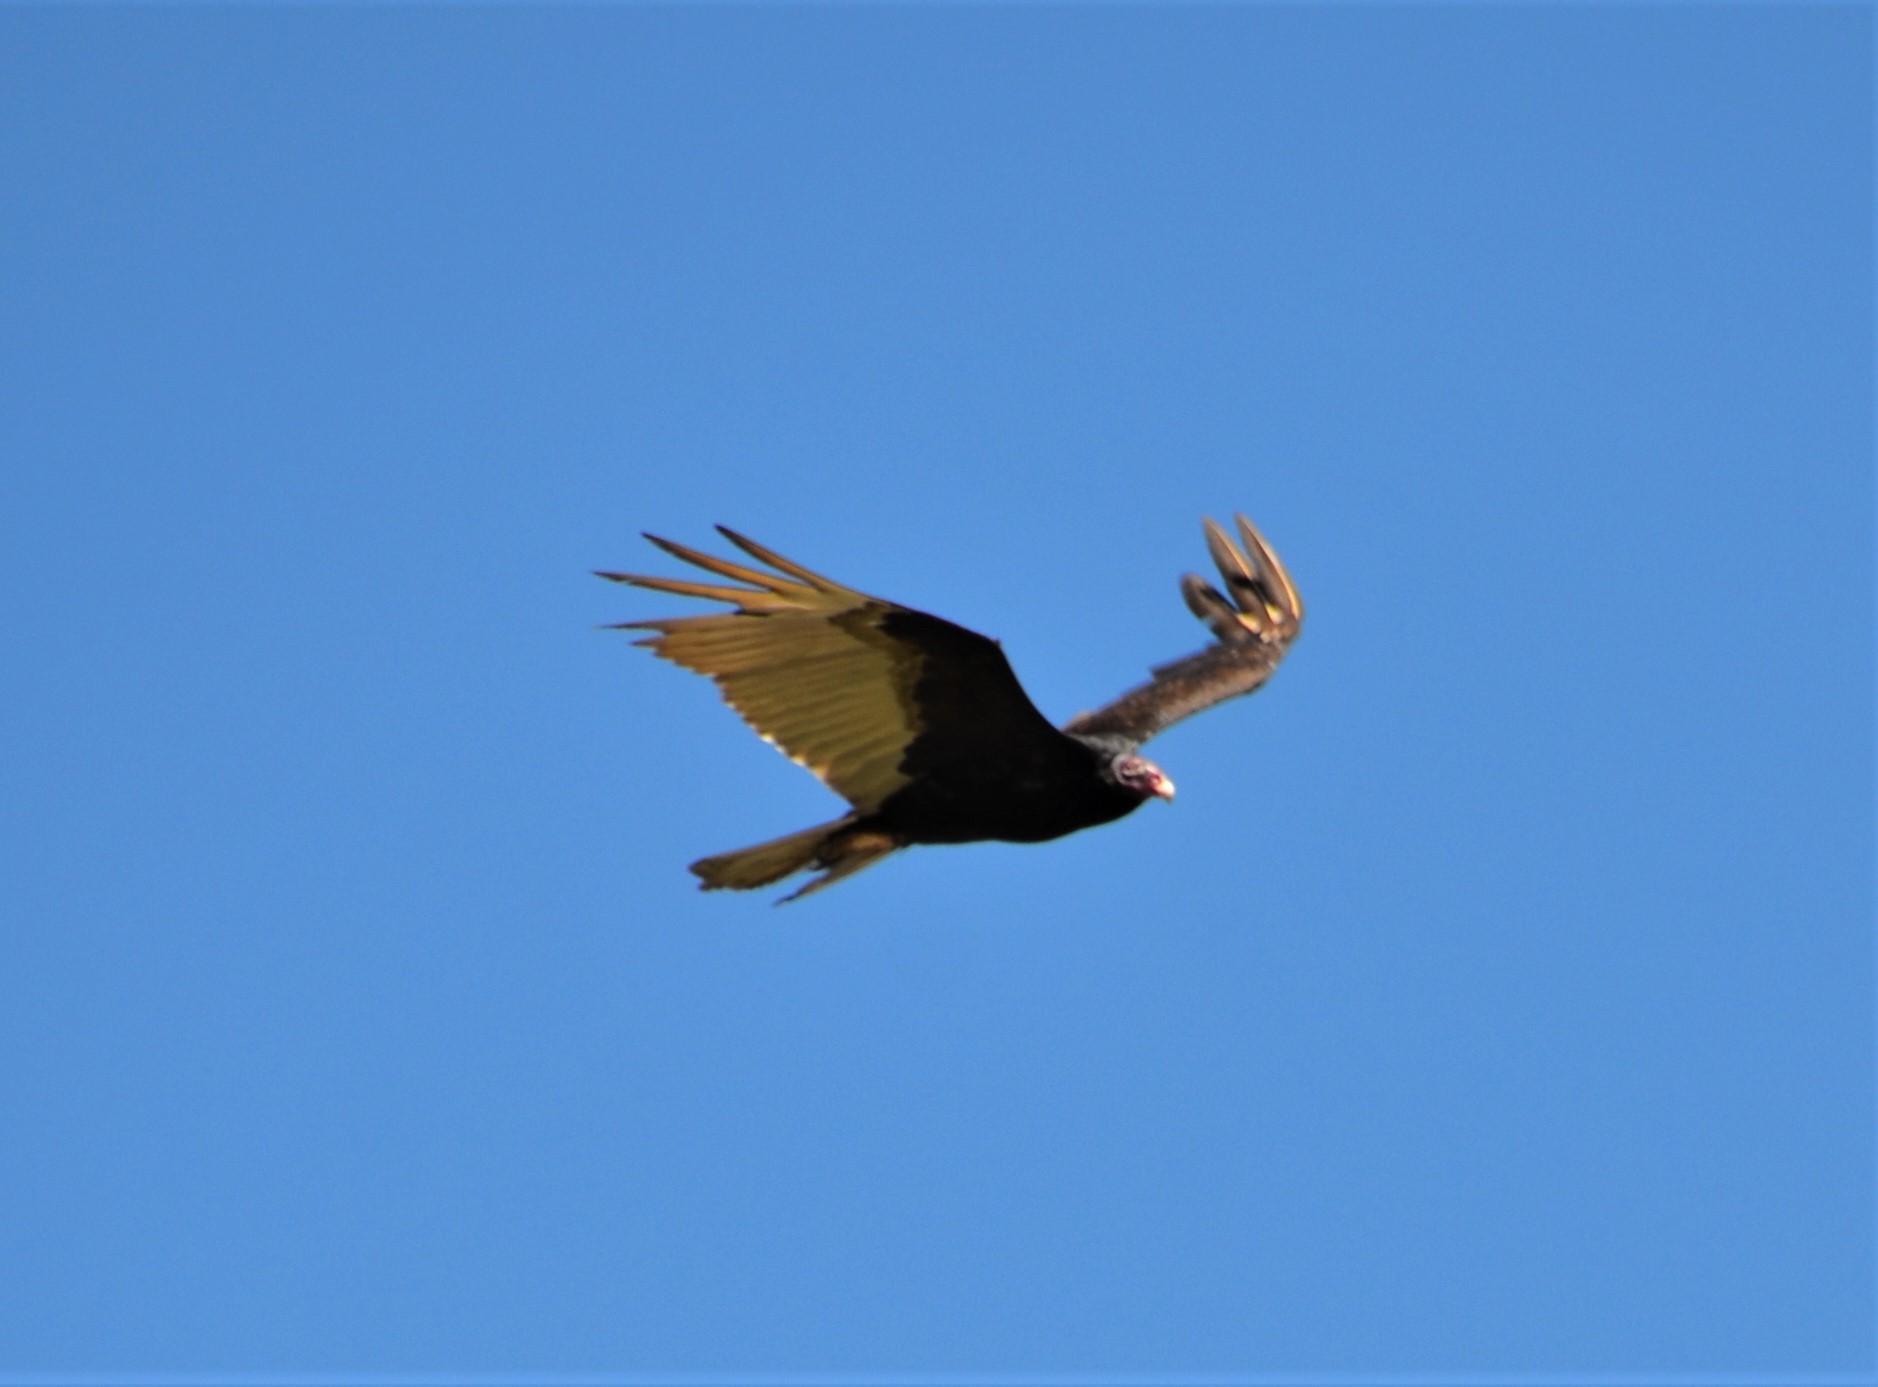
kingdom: Animalia
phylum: Chordata
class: Aves
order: Accipitriformes
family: Cathartidae
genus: Cathartes
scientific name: Cathartes aura
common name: Turkey vulture
